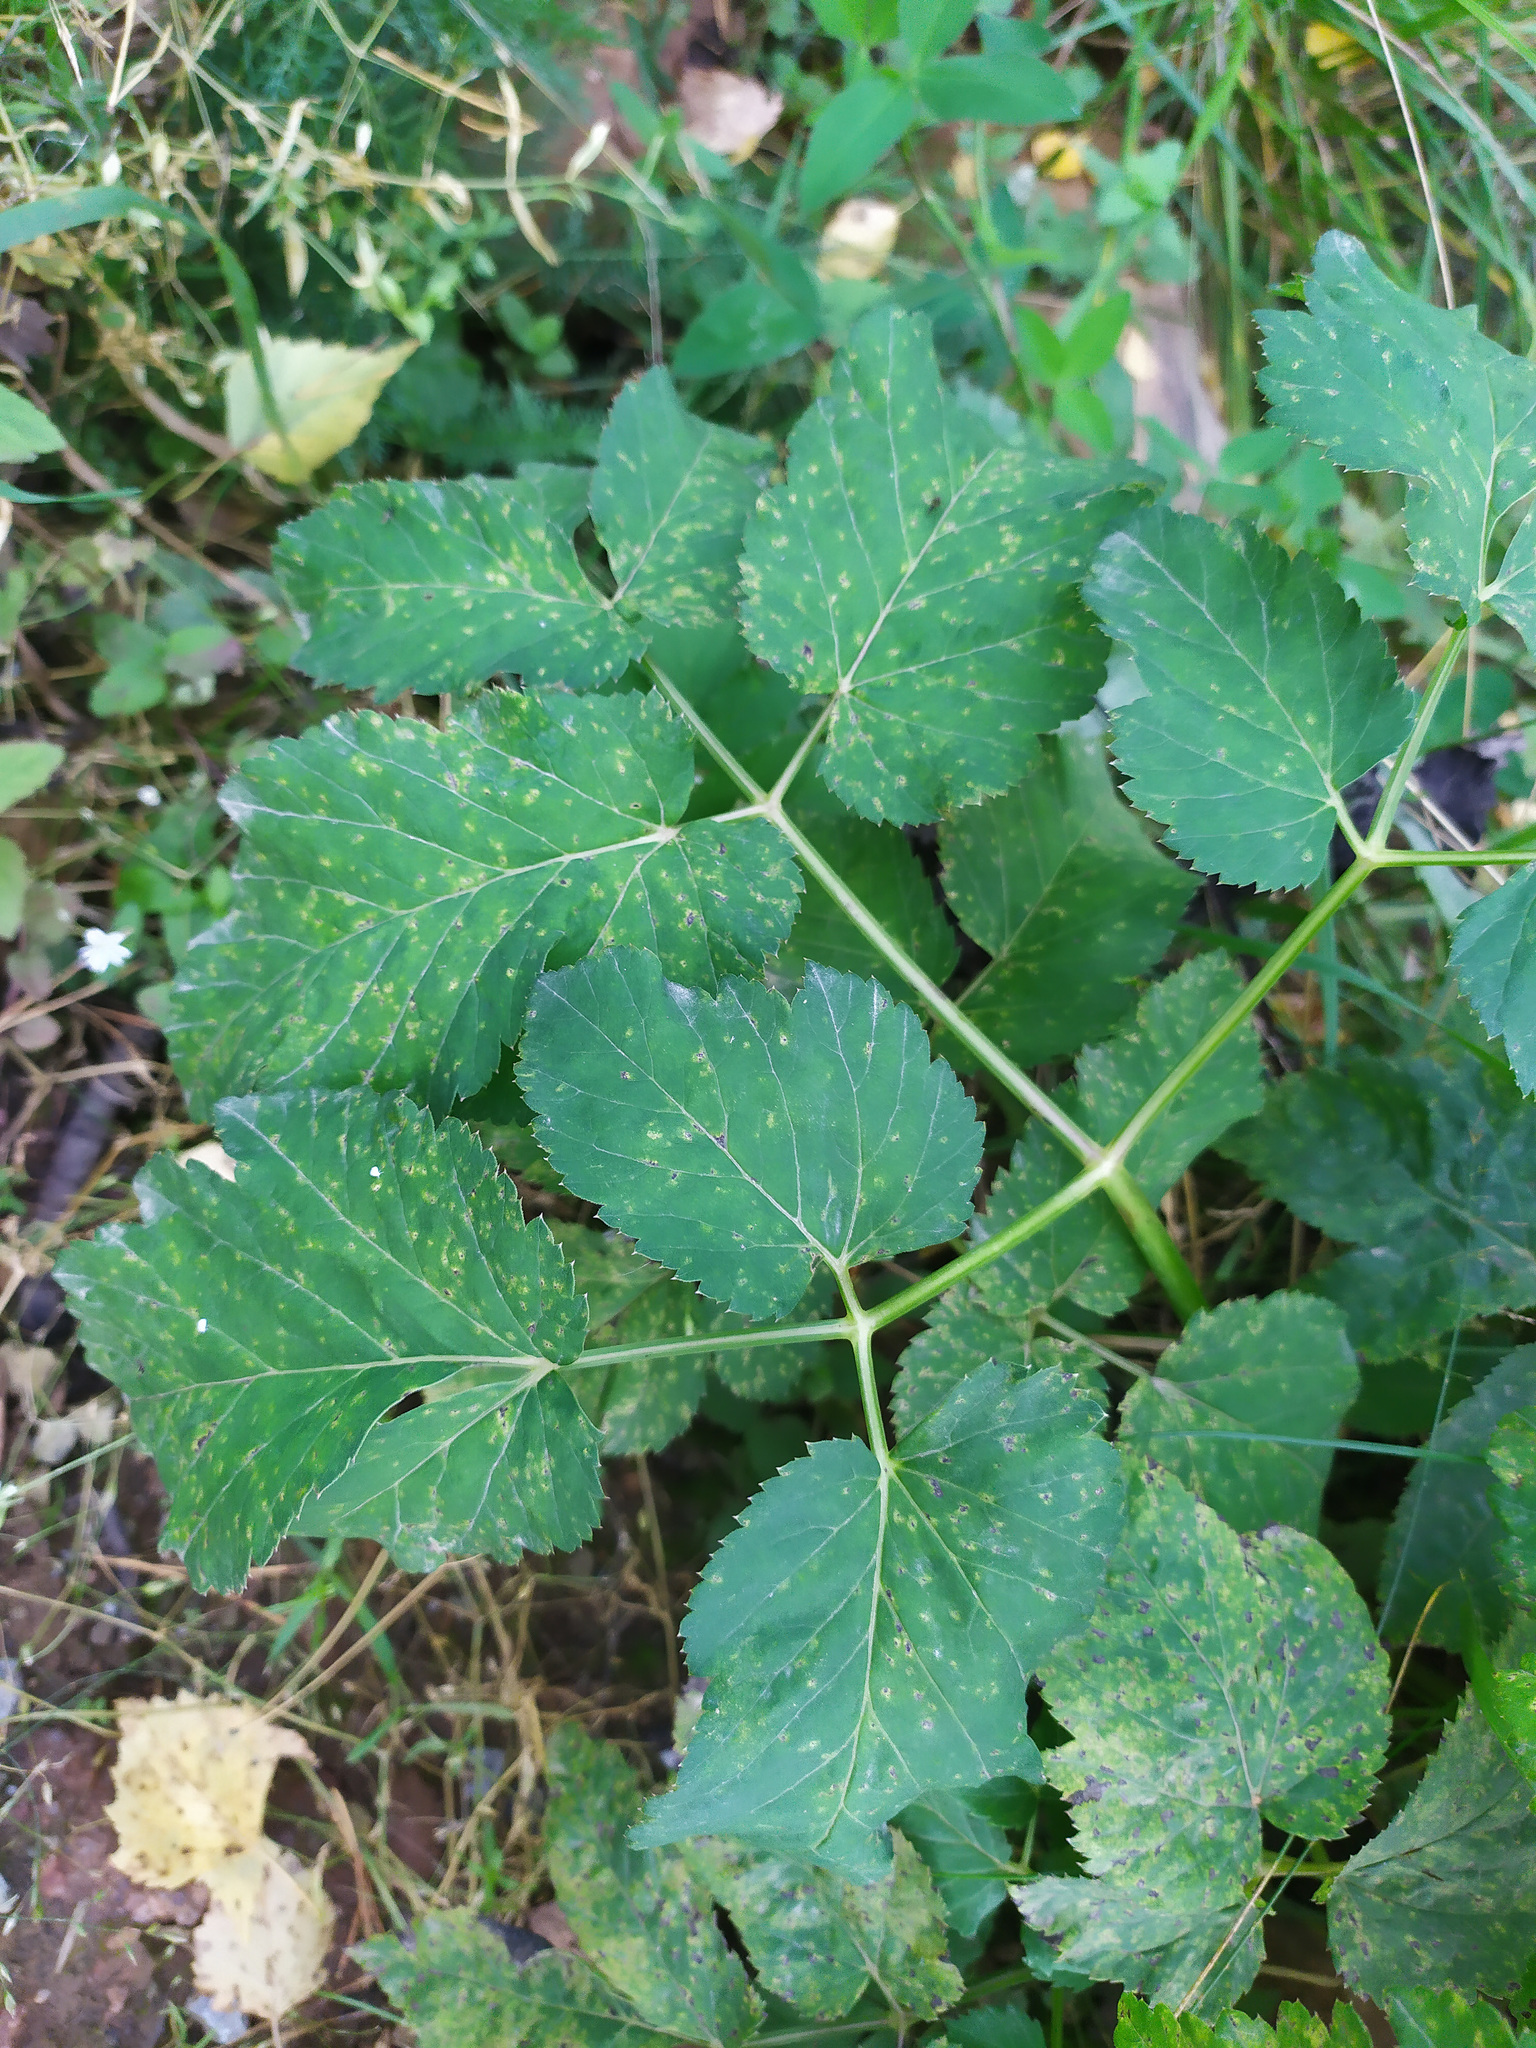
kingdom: Plantae
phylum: Tracheophyta
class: Magnoliopsida
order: Apiales
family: Apiaceae
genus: Aegopodium
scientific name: Aegopodium podagraria
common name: Ground-elder
